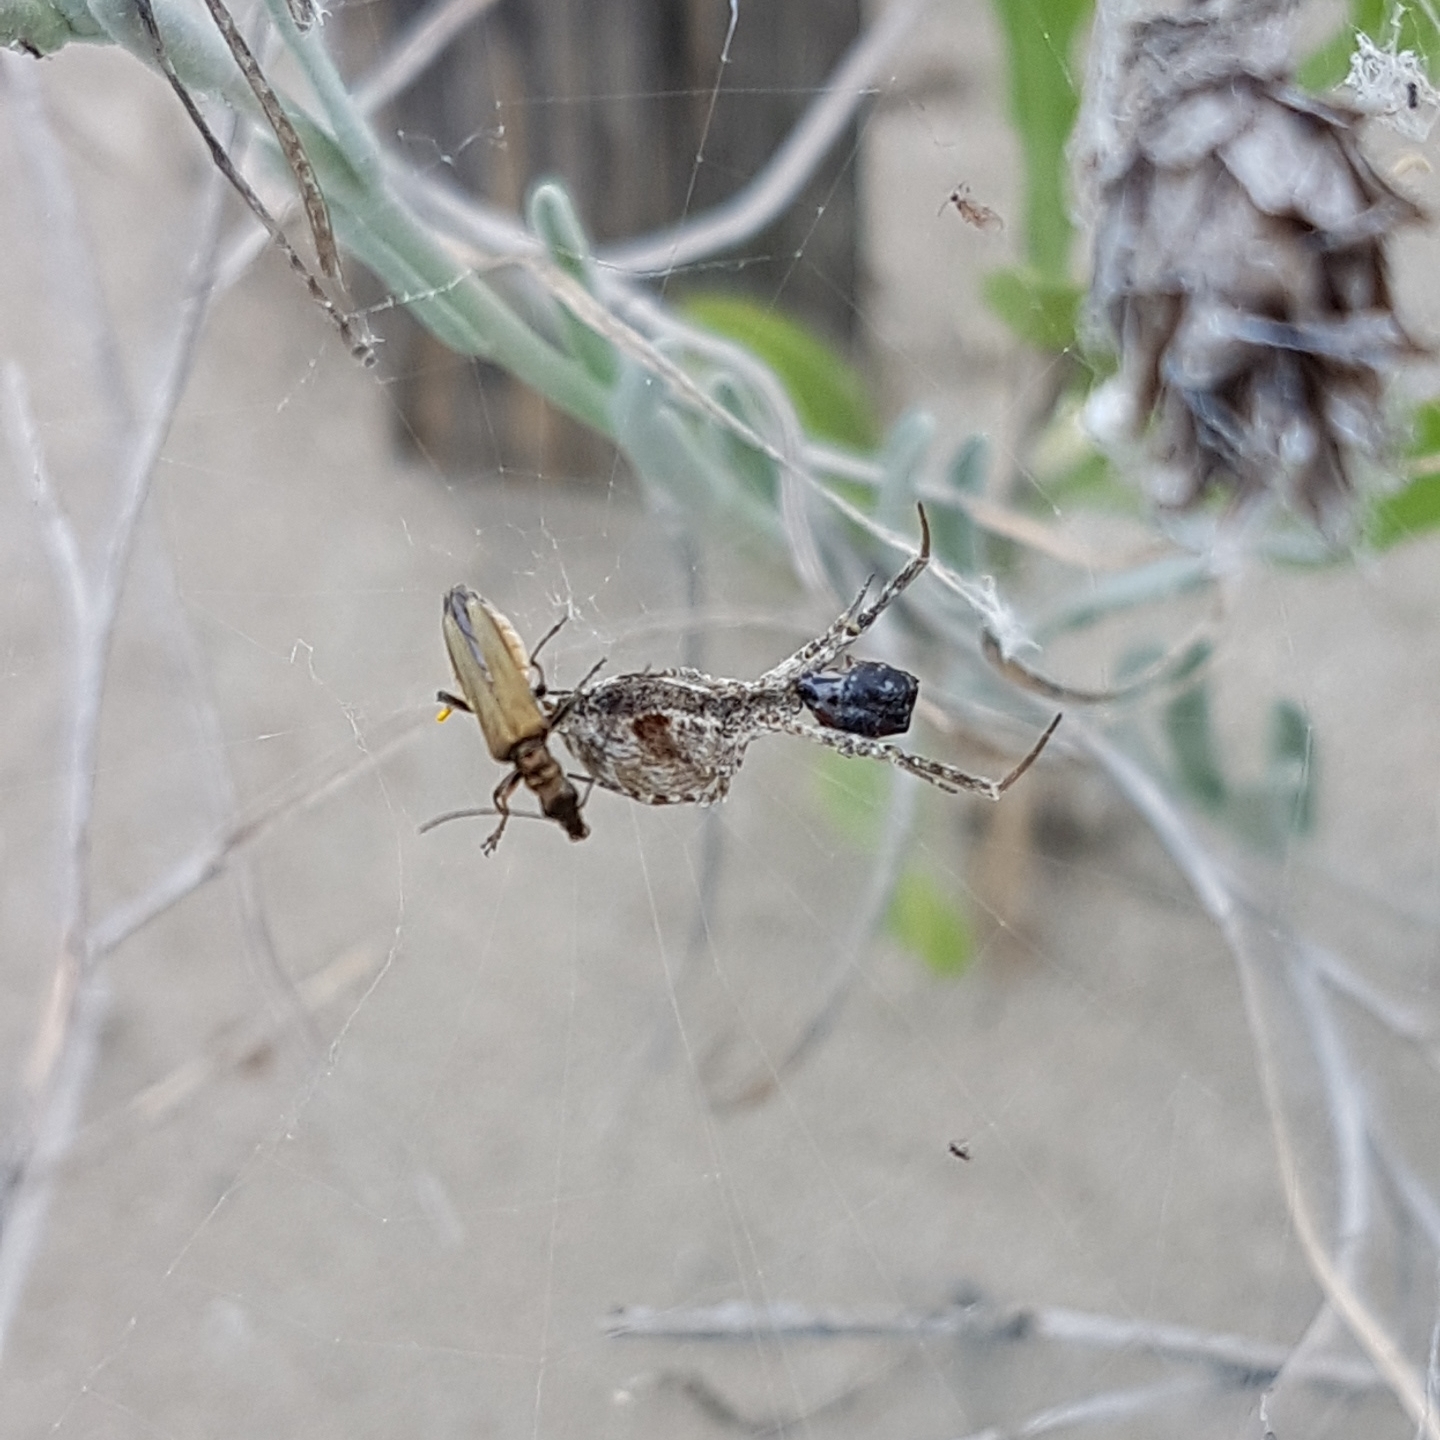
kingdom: Animalia
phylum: Arthropoda
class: Insecta
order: Coleoptera
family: Oedemeridae
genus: Oedemera
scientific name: Oedemera flavipes
